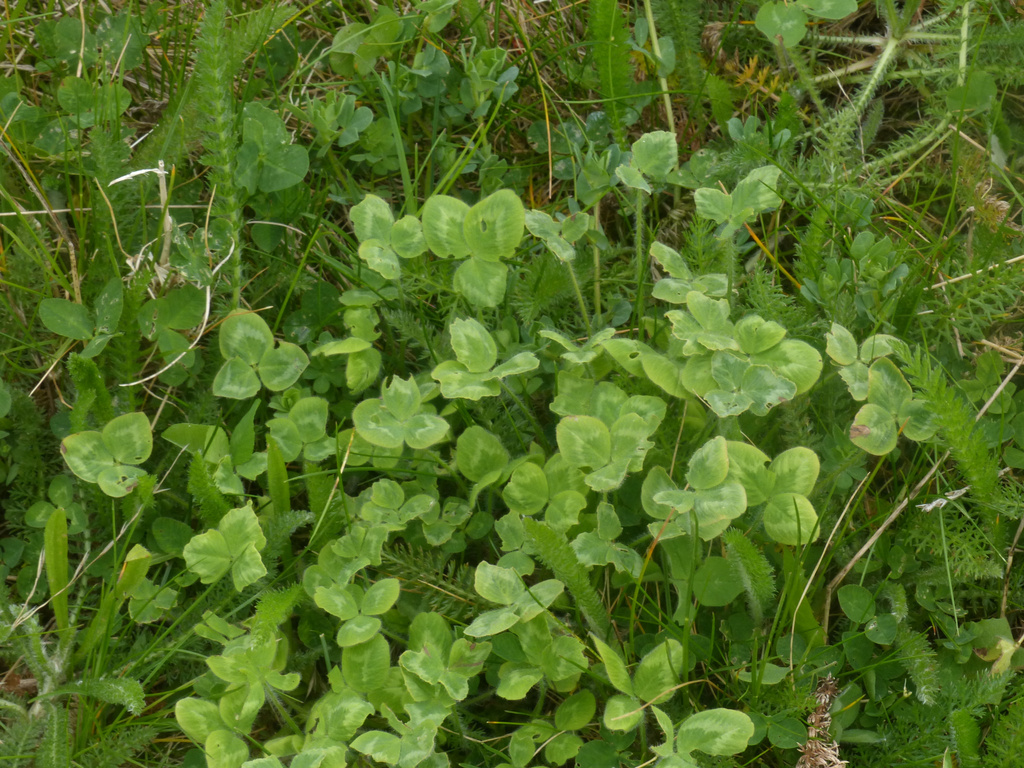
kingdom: Plantae
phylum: Tracheophyta
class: Magnoliopsida
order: Fabales
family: Fabaceae
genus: Trifolium
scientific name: Trifolium pratense
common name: Red clover
